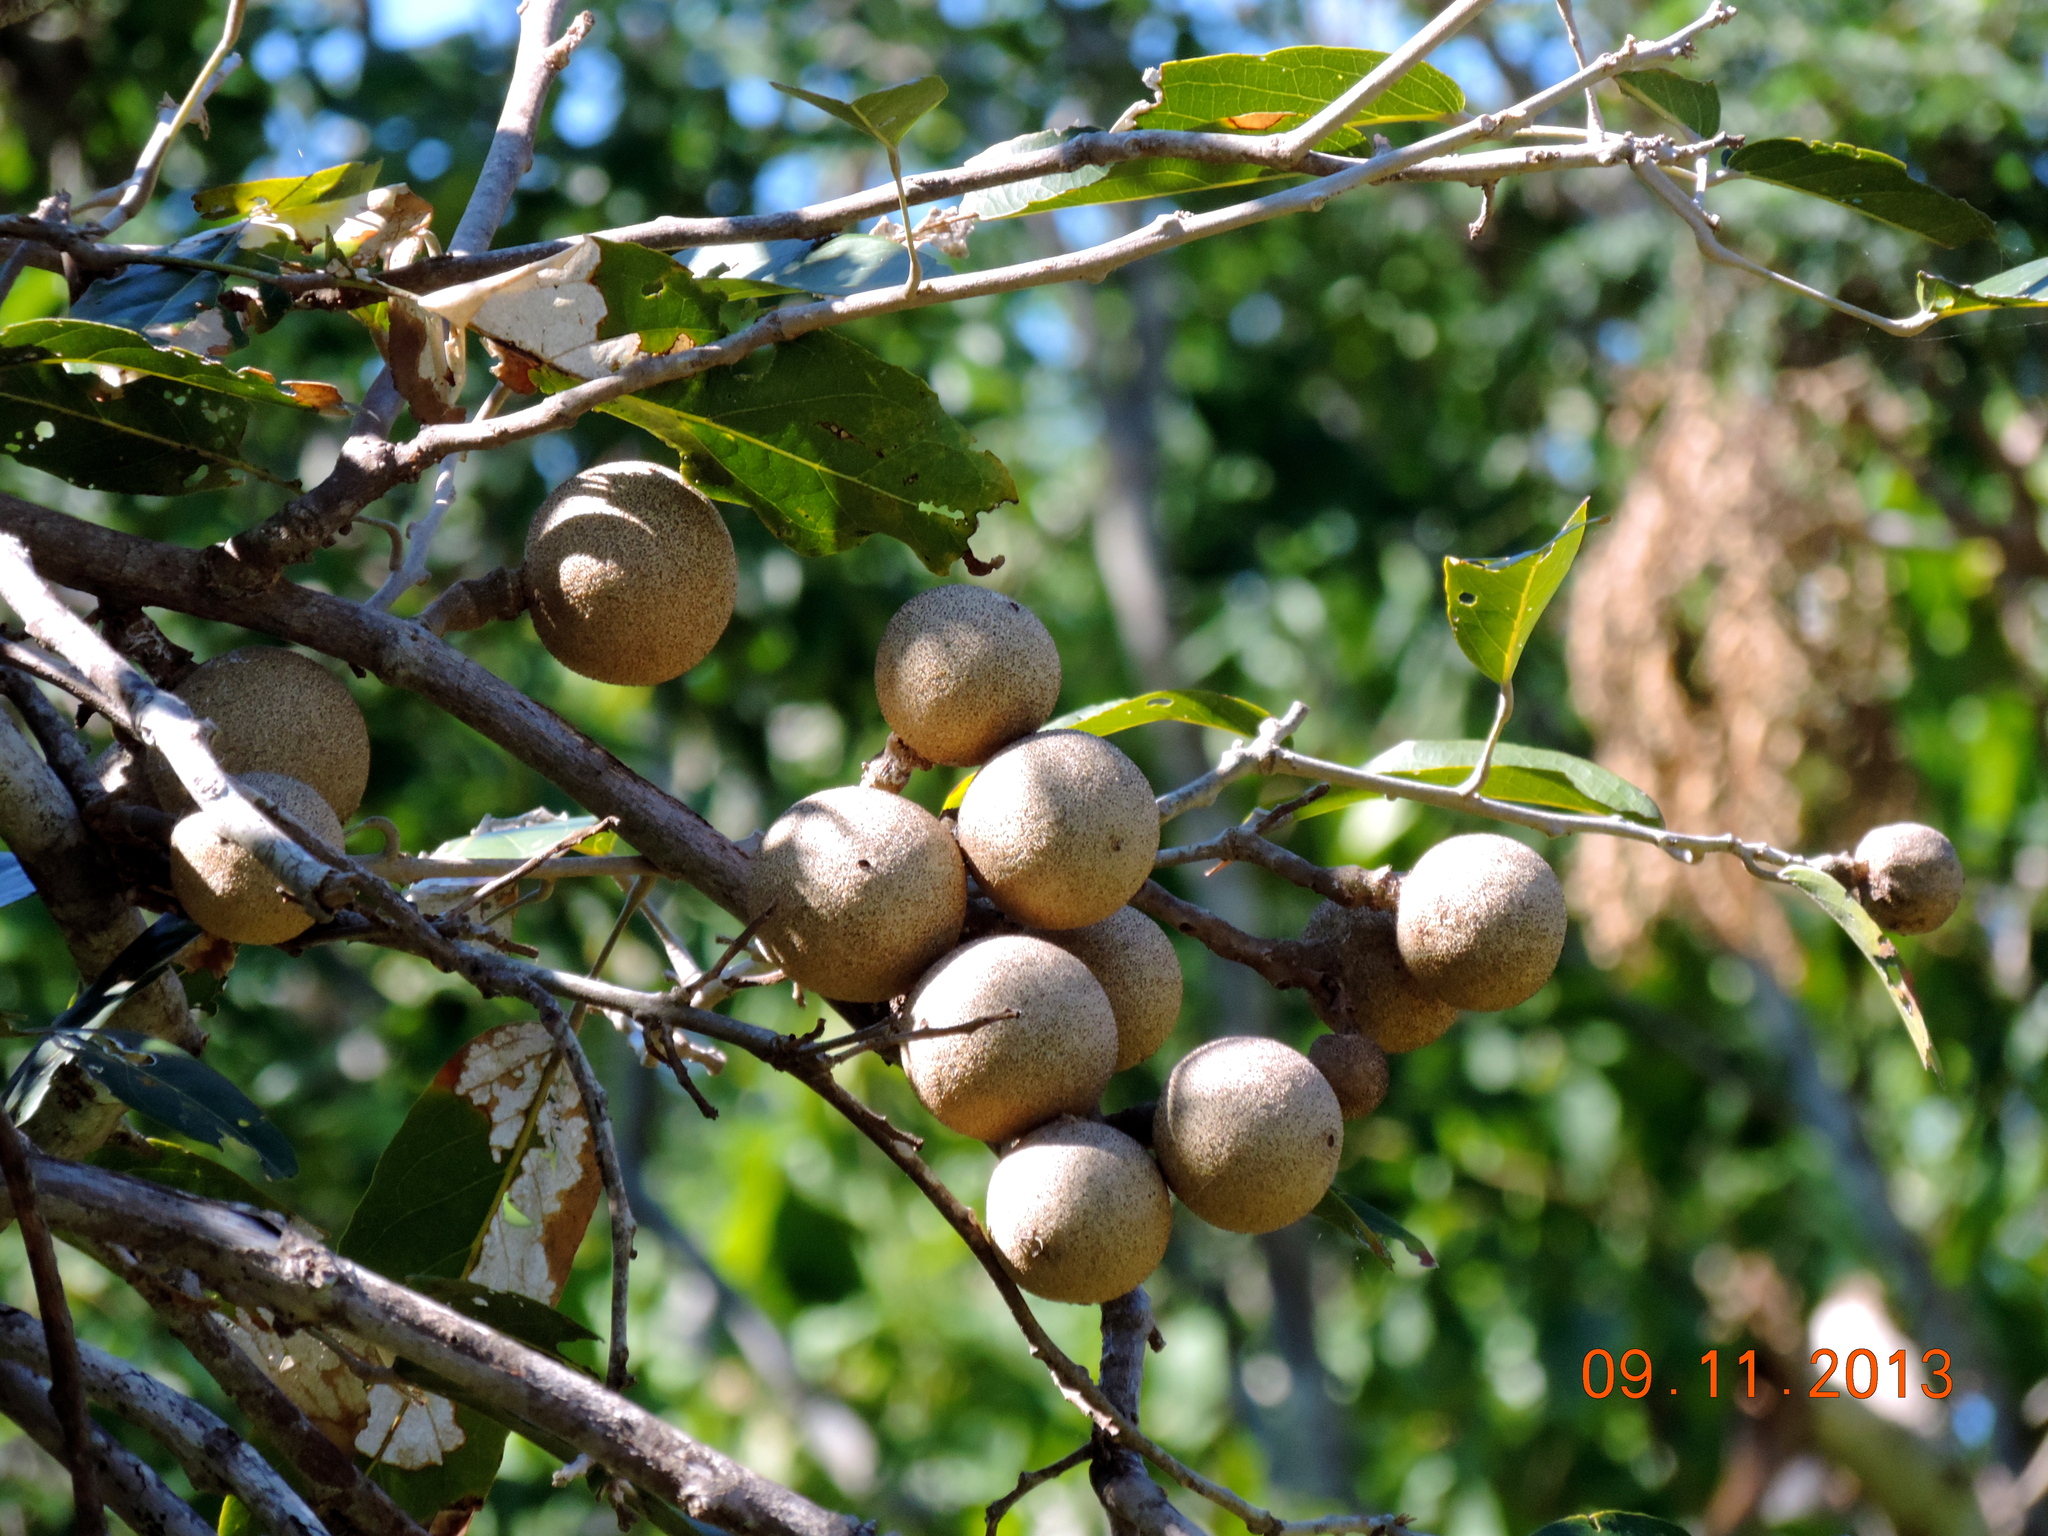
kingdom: Plantae
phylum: Tracheophyta
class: Magnoliopsida
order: Brassicales
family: Capparaceae
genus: Morisonia
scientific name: Morisonia americana
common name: Wild mesple
